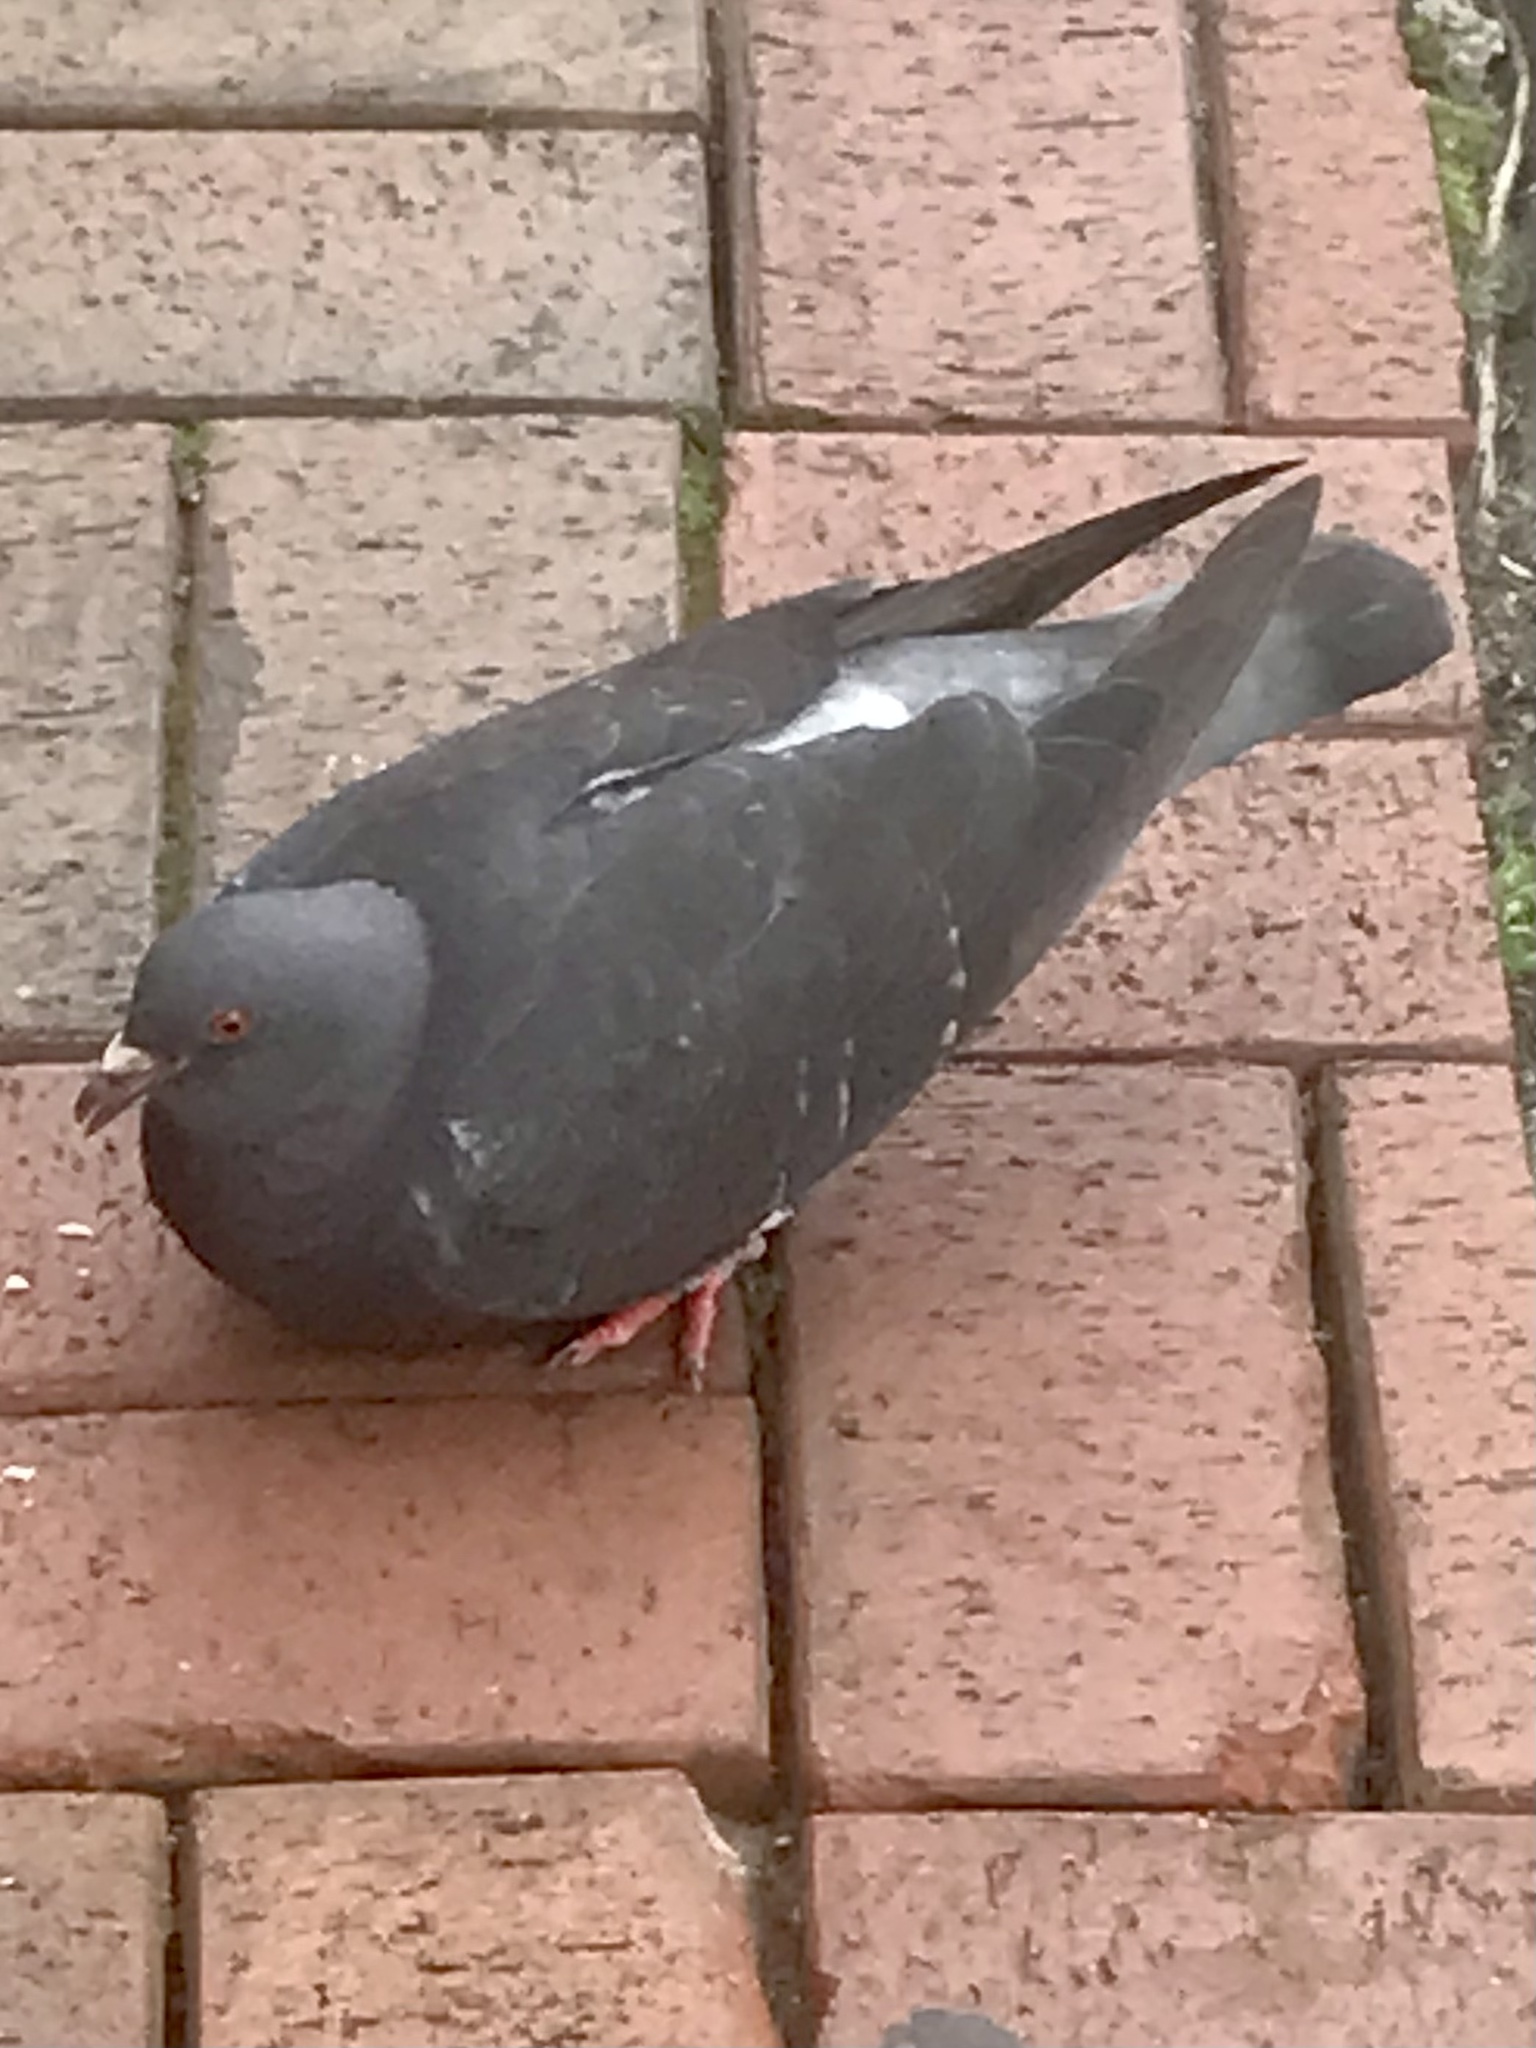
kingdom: Animalia
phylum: Chordata
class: Aves
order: Columbiformes
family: Columbidae
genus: Columba
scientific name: Columba livia
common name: Rock pigeon
